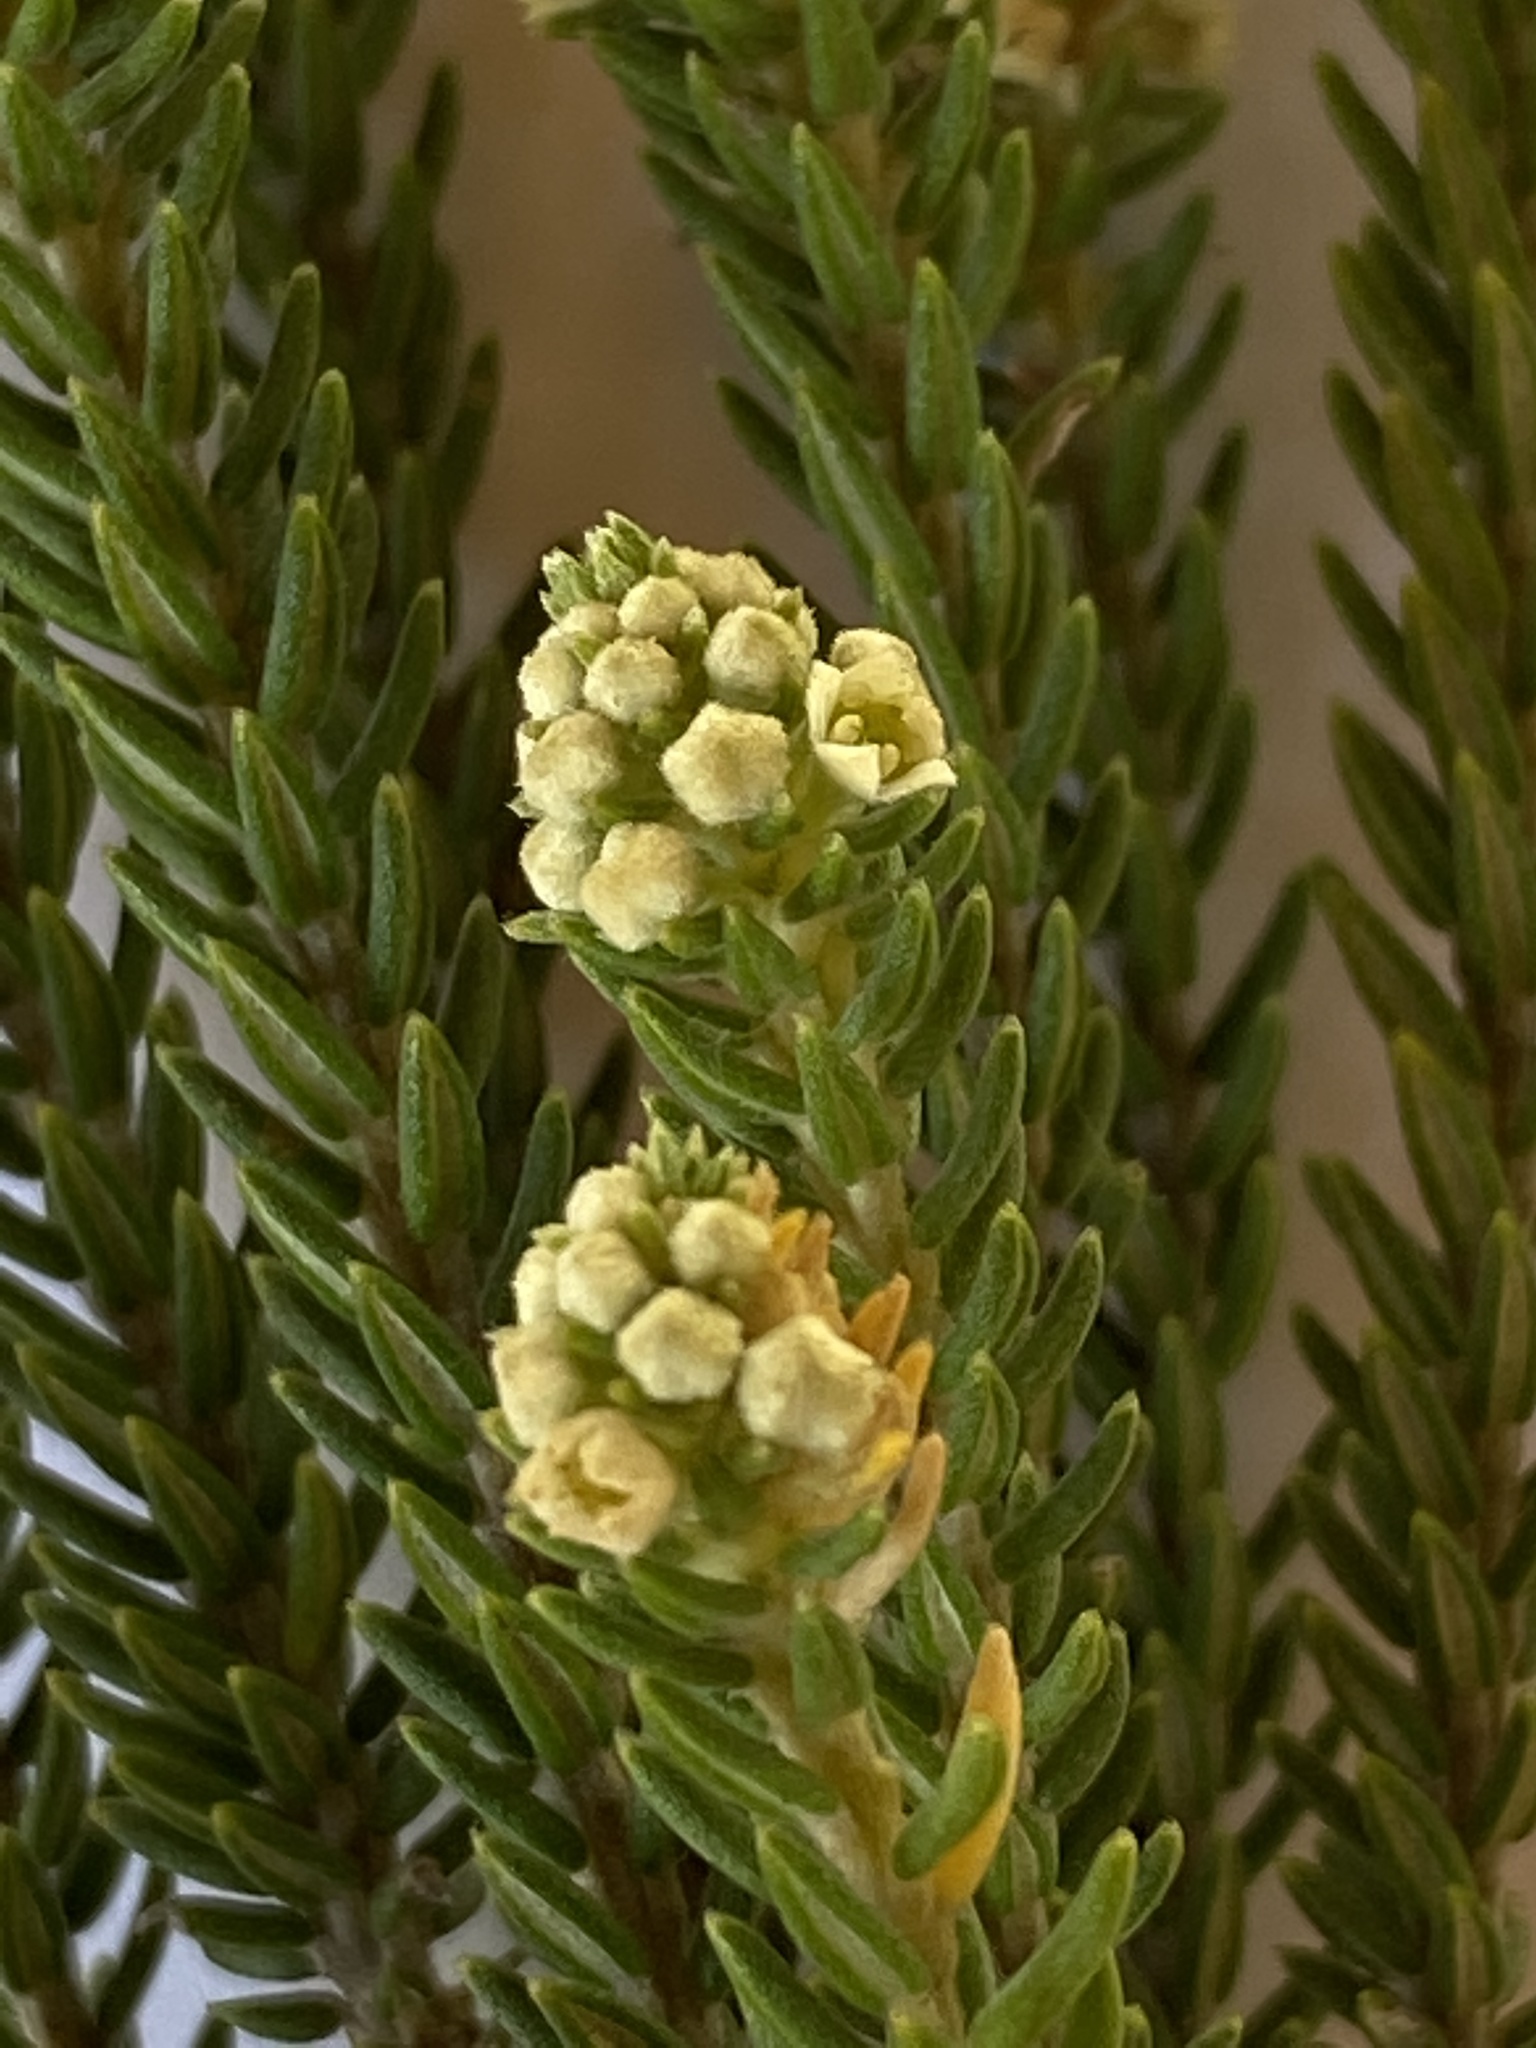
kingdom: Plantae
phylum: Tracheophyta
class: Magnoliopsida
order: Rosales
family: Rhamnaceae
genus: Phylica
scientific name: Phylica axillaris
